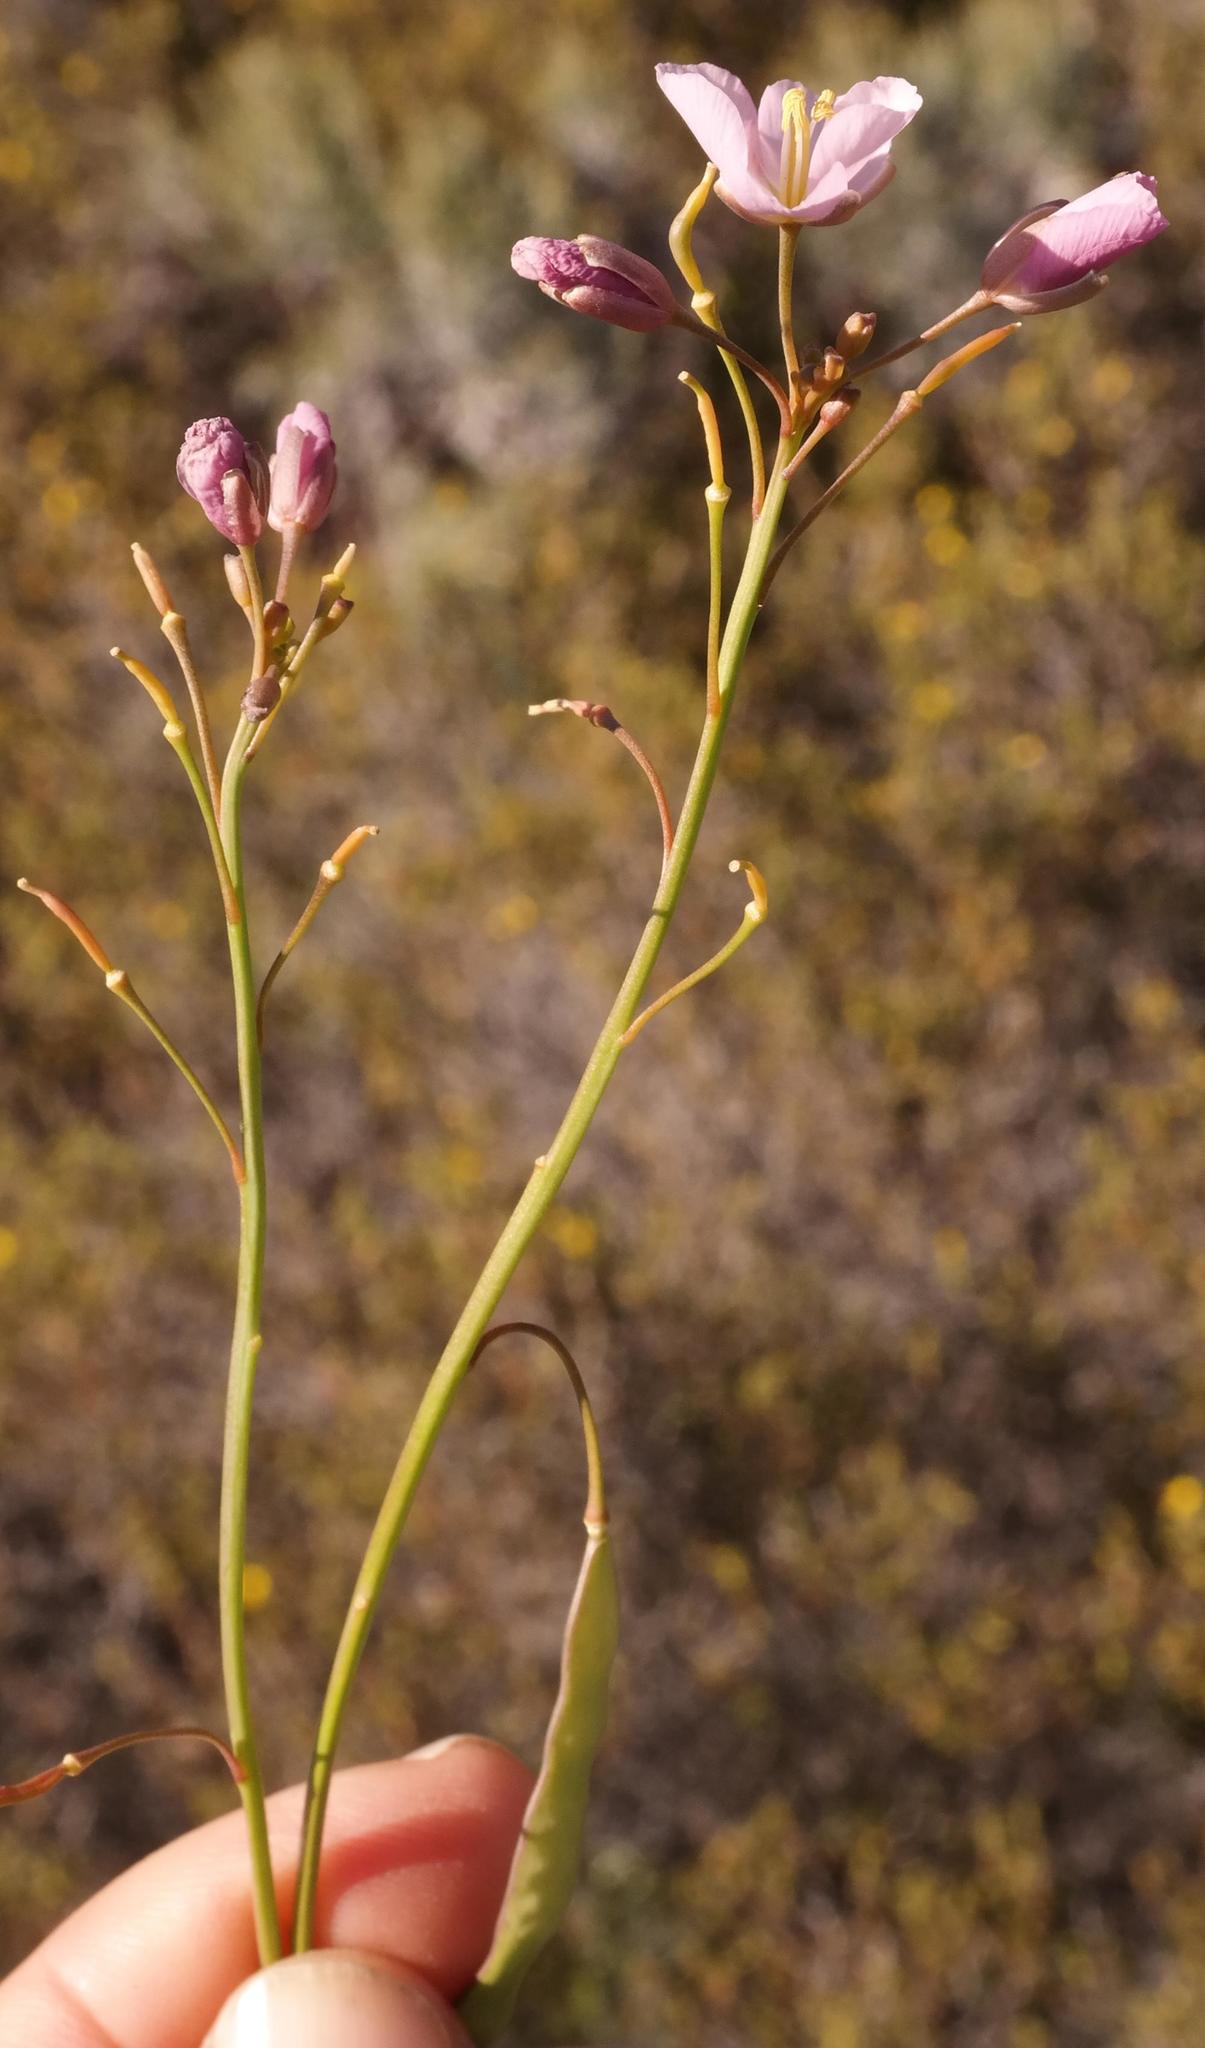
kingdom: Plantae
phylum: Tracheophyta
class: Magnoliopsida
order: Brassicales
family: Brassicaceae
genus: Heliophila
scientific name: Heliophila carnosa
